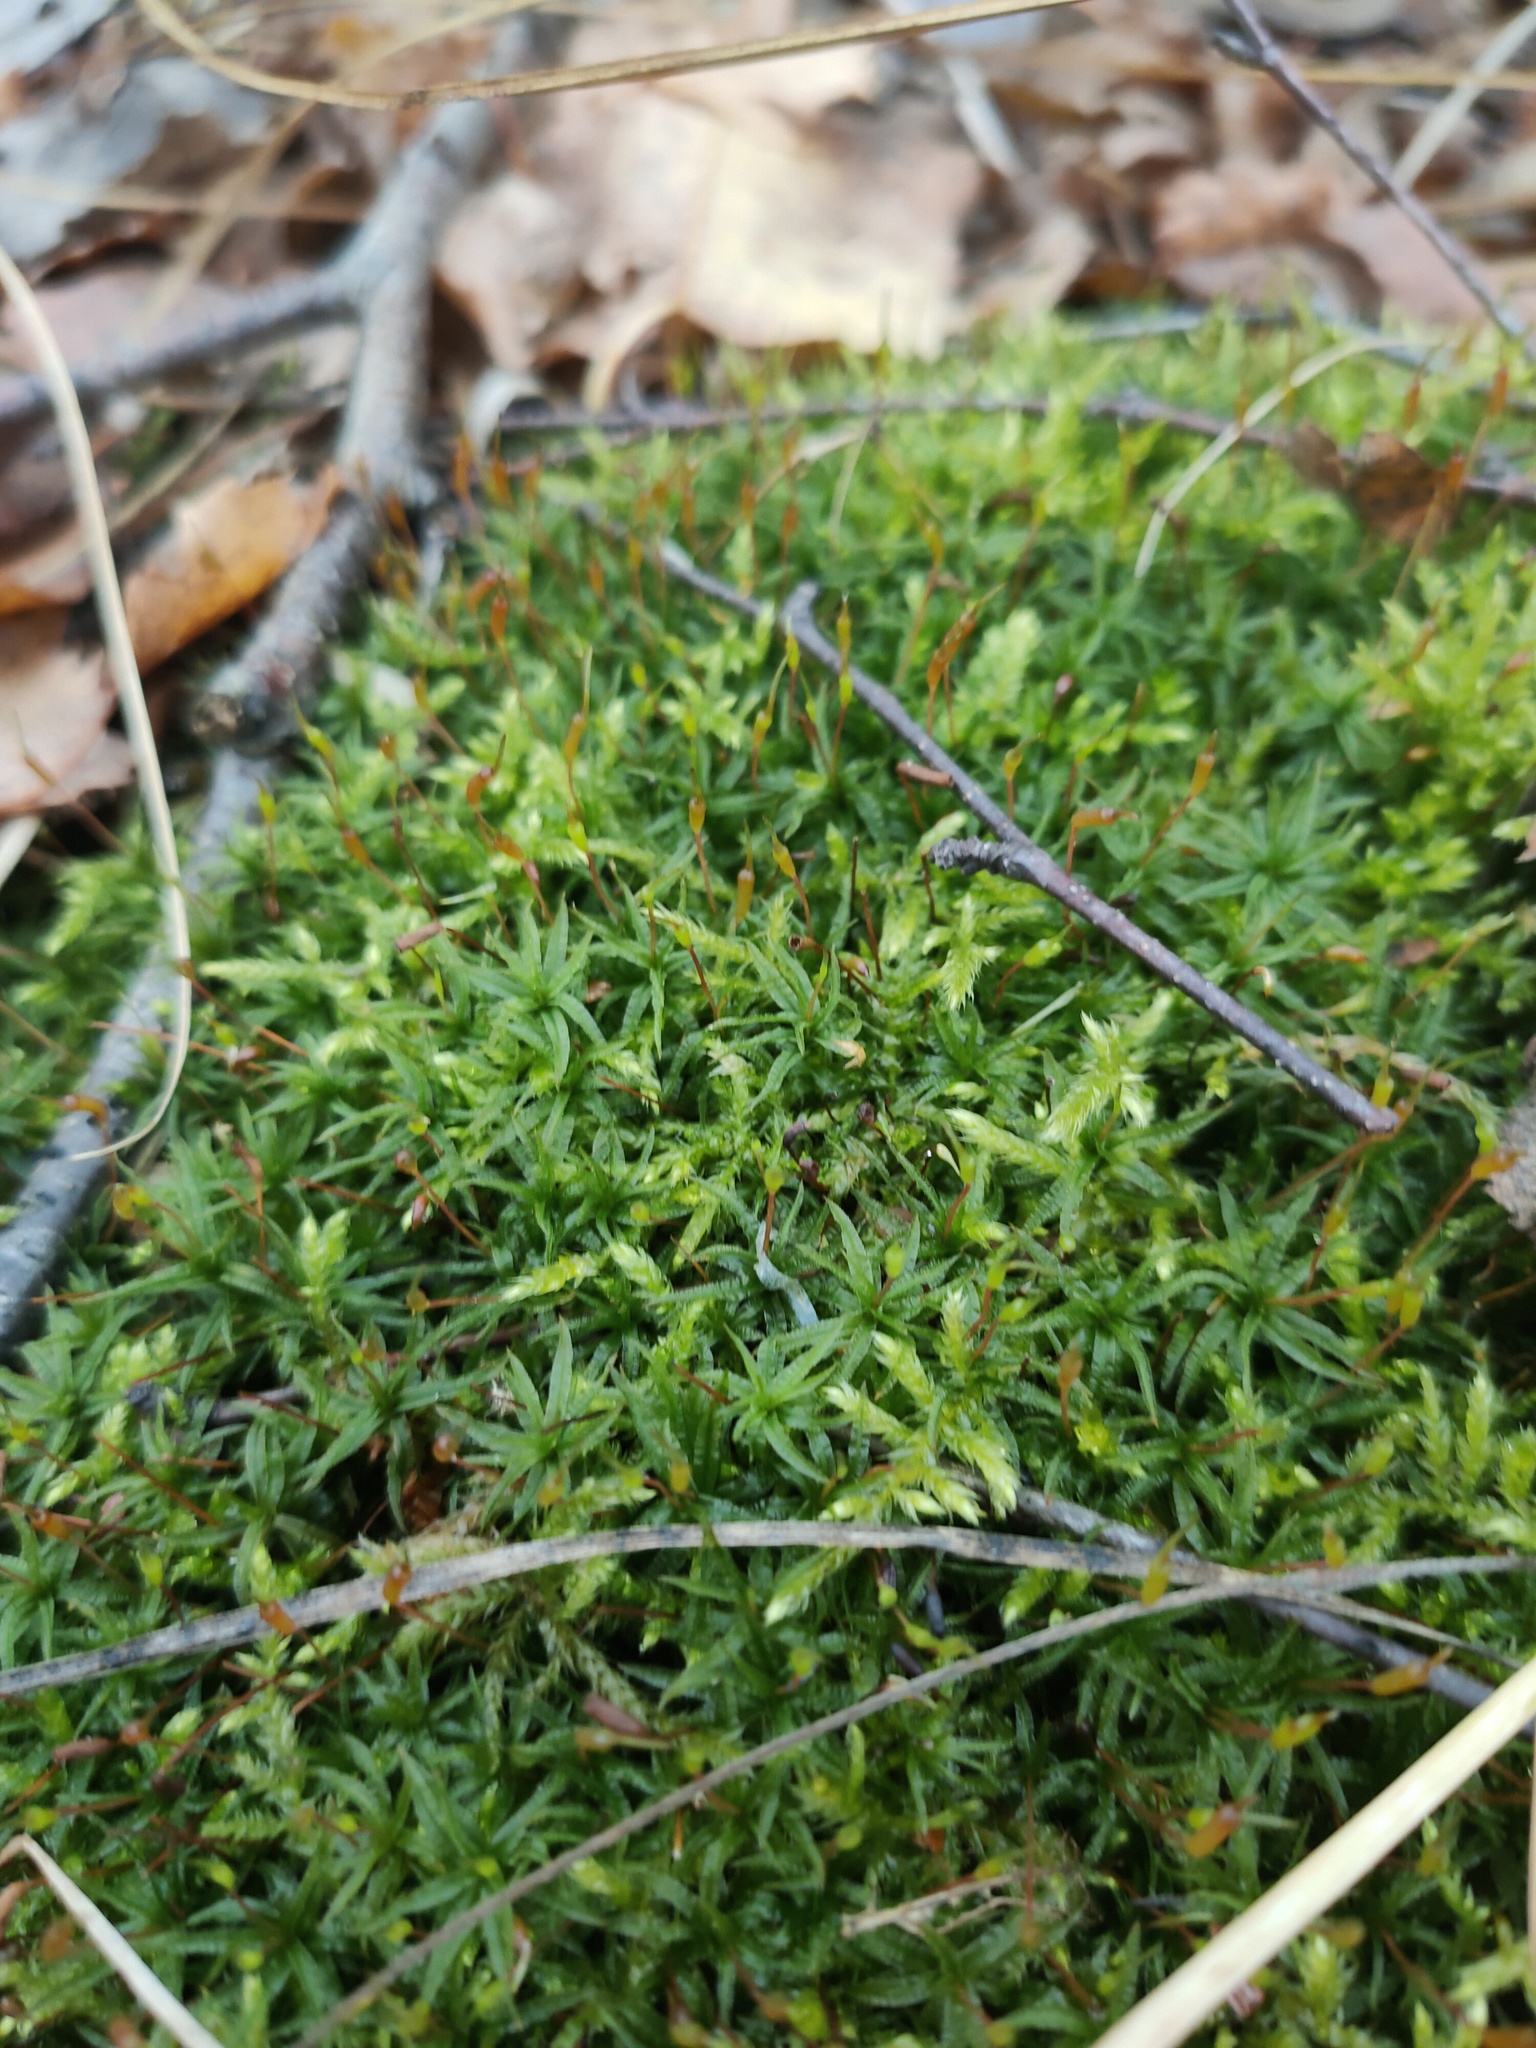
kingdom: Plantae
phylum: Bryophyta
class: Polytrichopsida
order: Polytrichales
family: Polytrichaceae
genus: Atrichum
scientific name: Atrichum undulatum
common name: Common smoothcap
